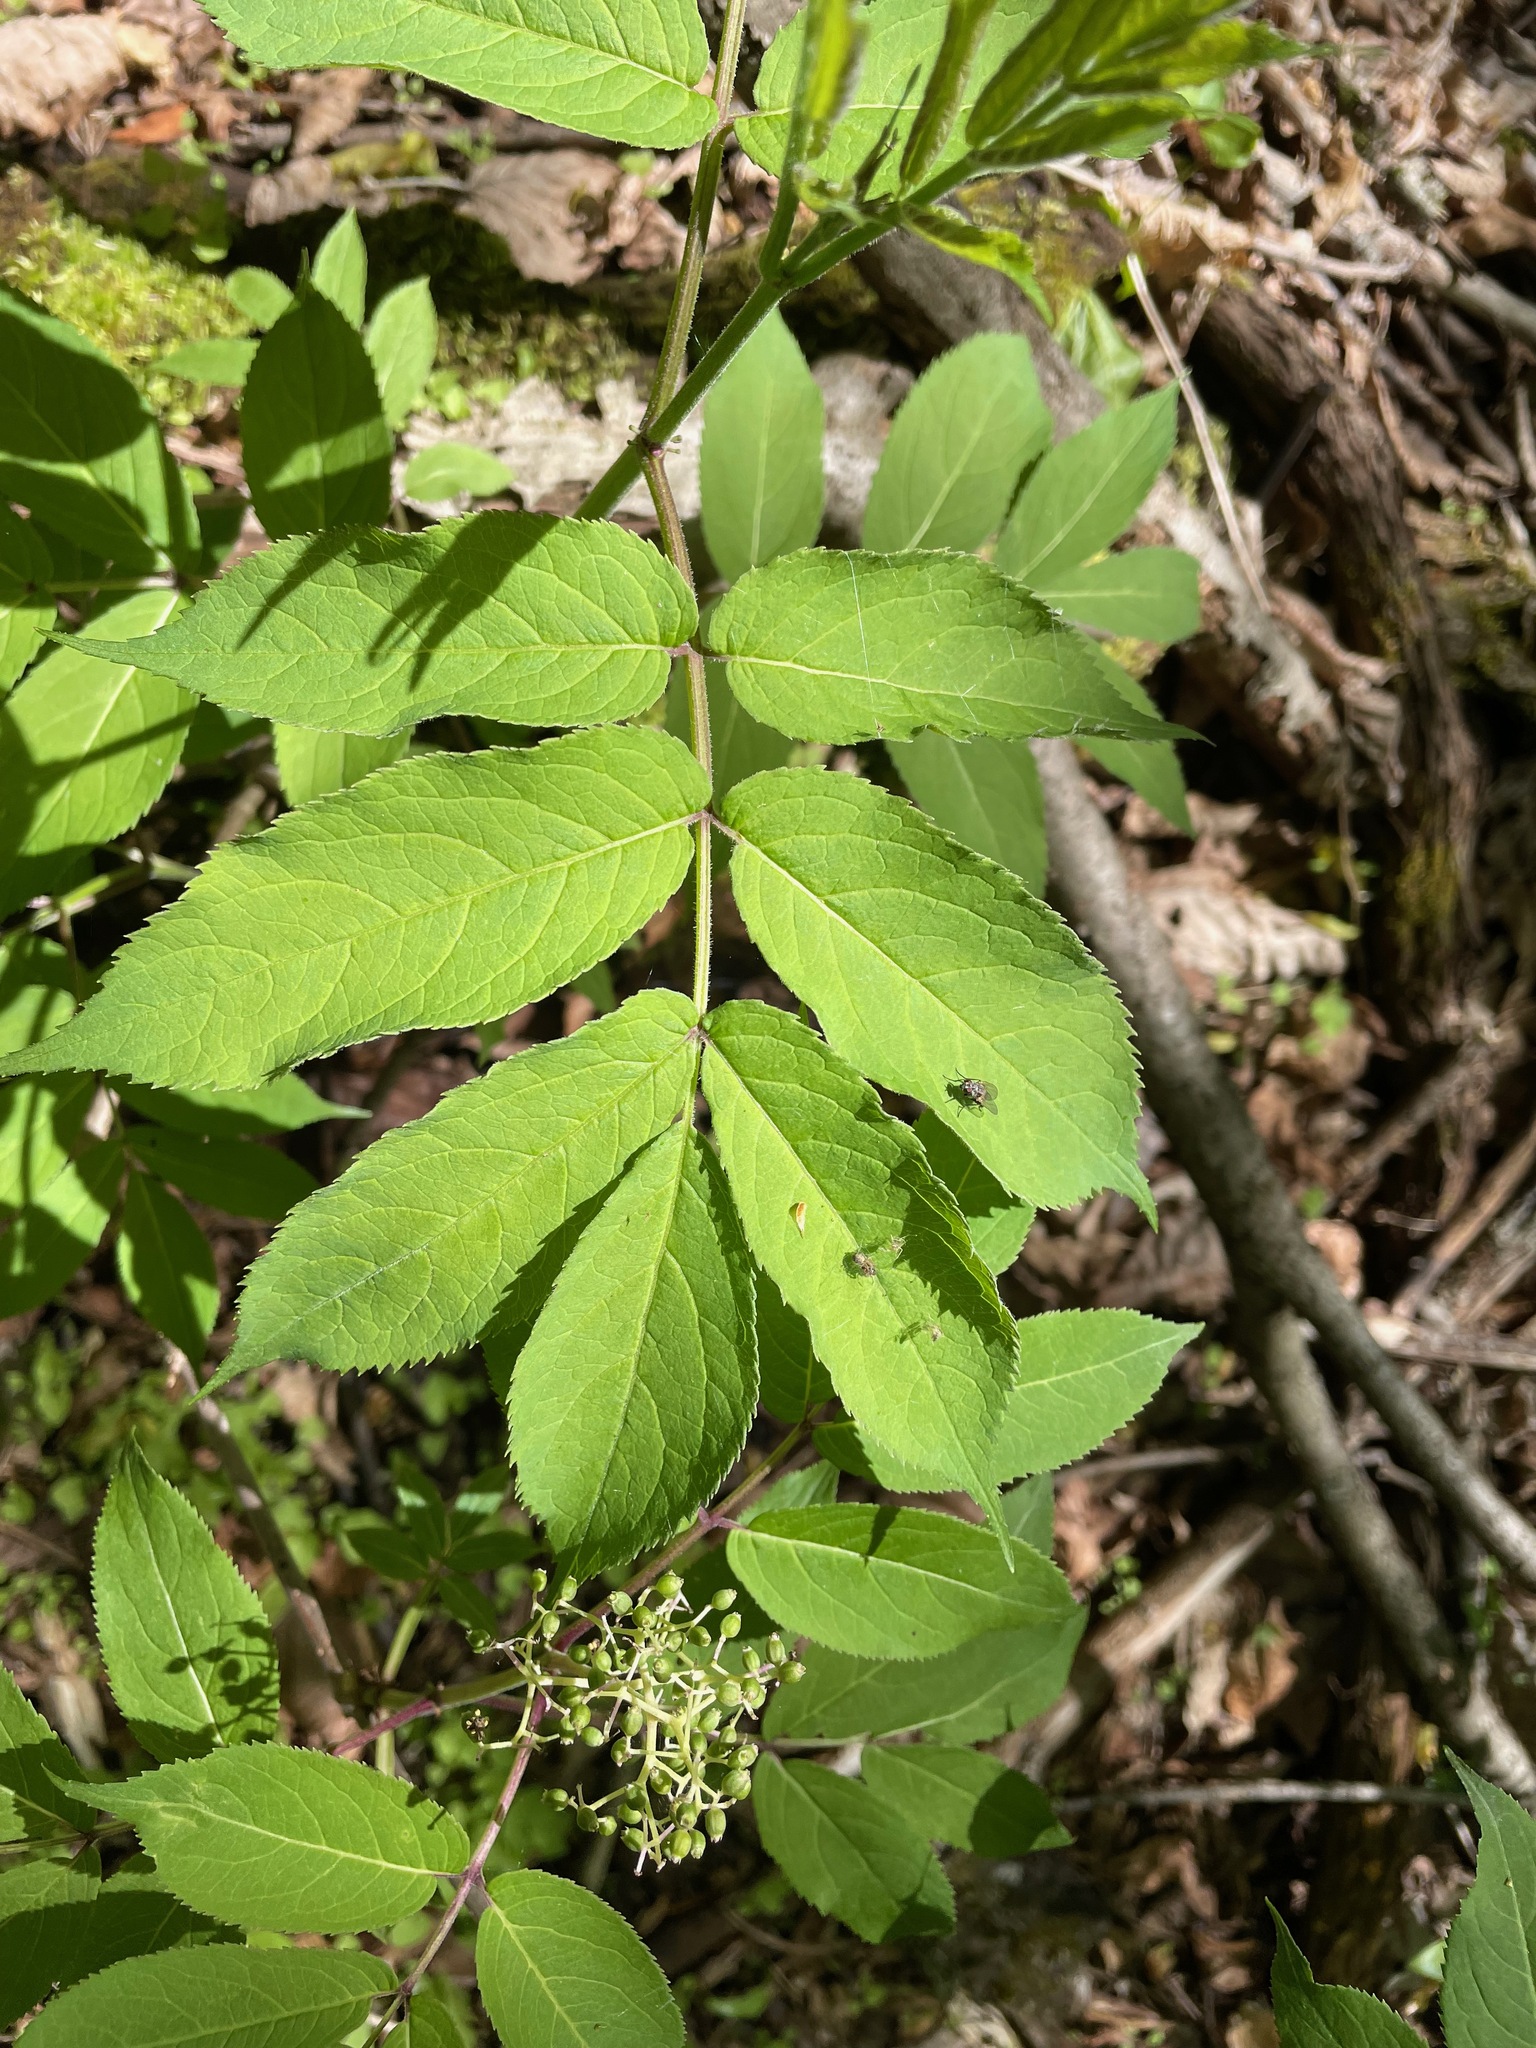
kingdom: Plantae
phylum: Tracheophyta
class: Magnoliopsida
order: Dipsacales
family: Viburnaceae
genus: Sambucus
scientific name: Sambucus racemosa
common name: Red-berried elder
